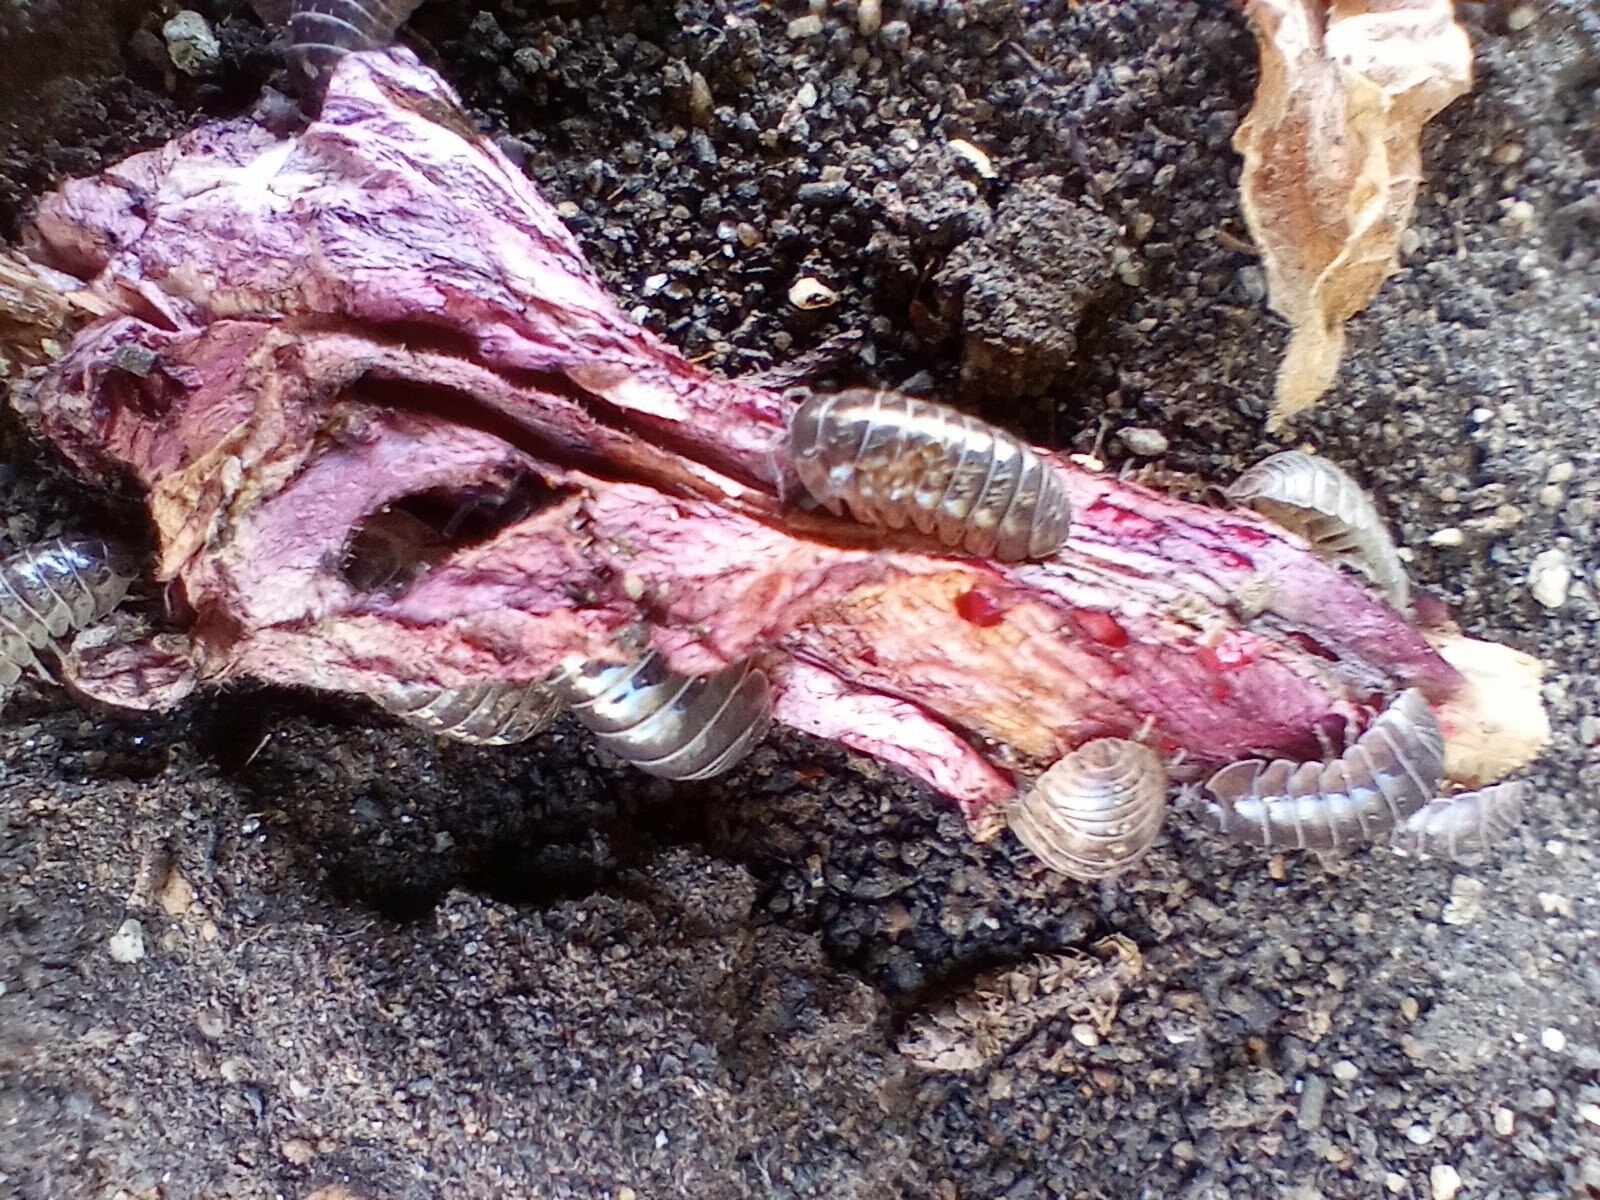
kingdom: Animalia
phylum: Arthropoda
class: Malacostraca
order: Isopoda
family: Armadillidiidae
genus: Armadillidium
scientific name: Armadillidium vulgare
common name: Common pill woodlouse
